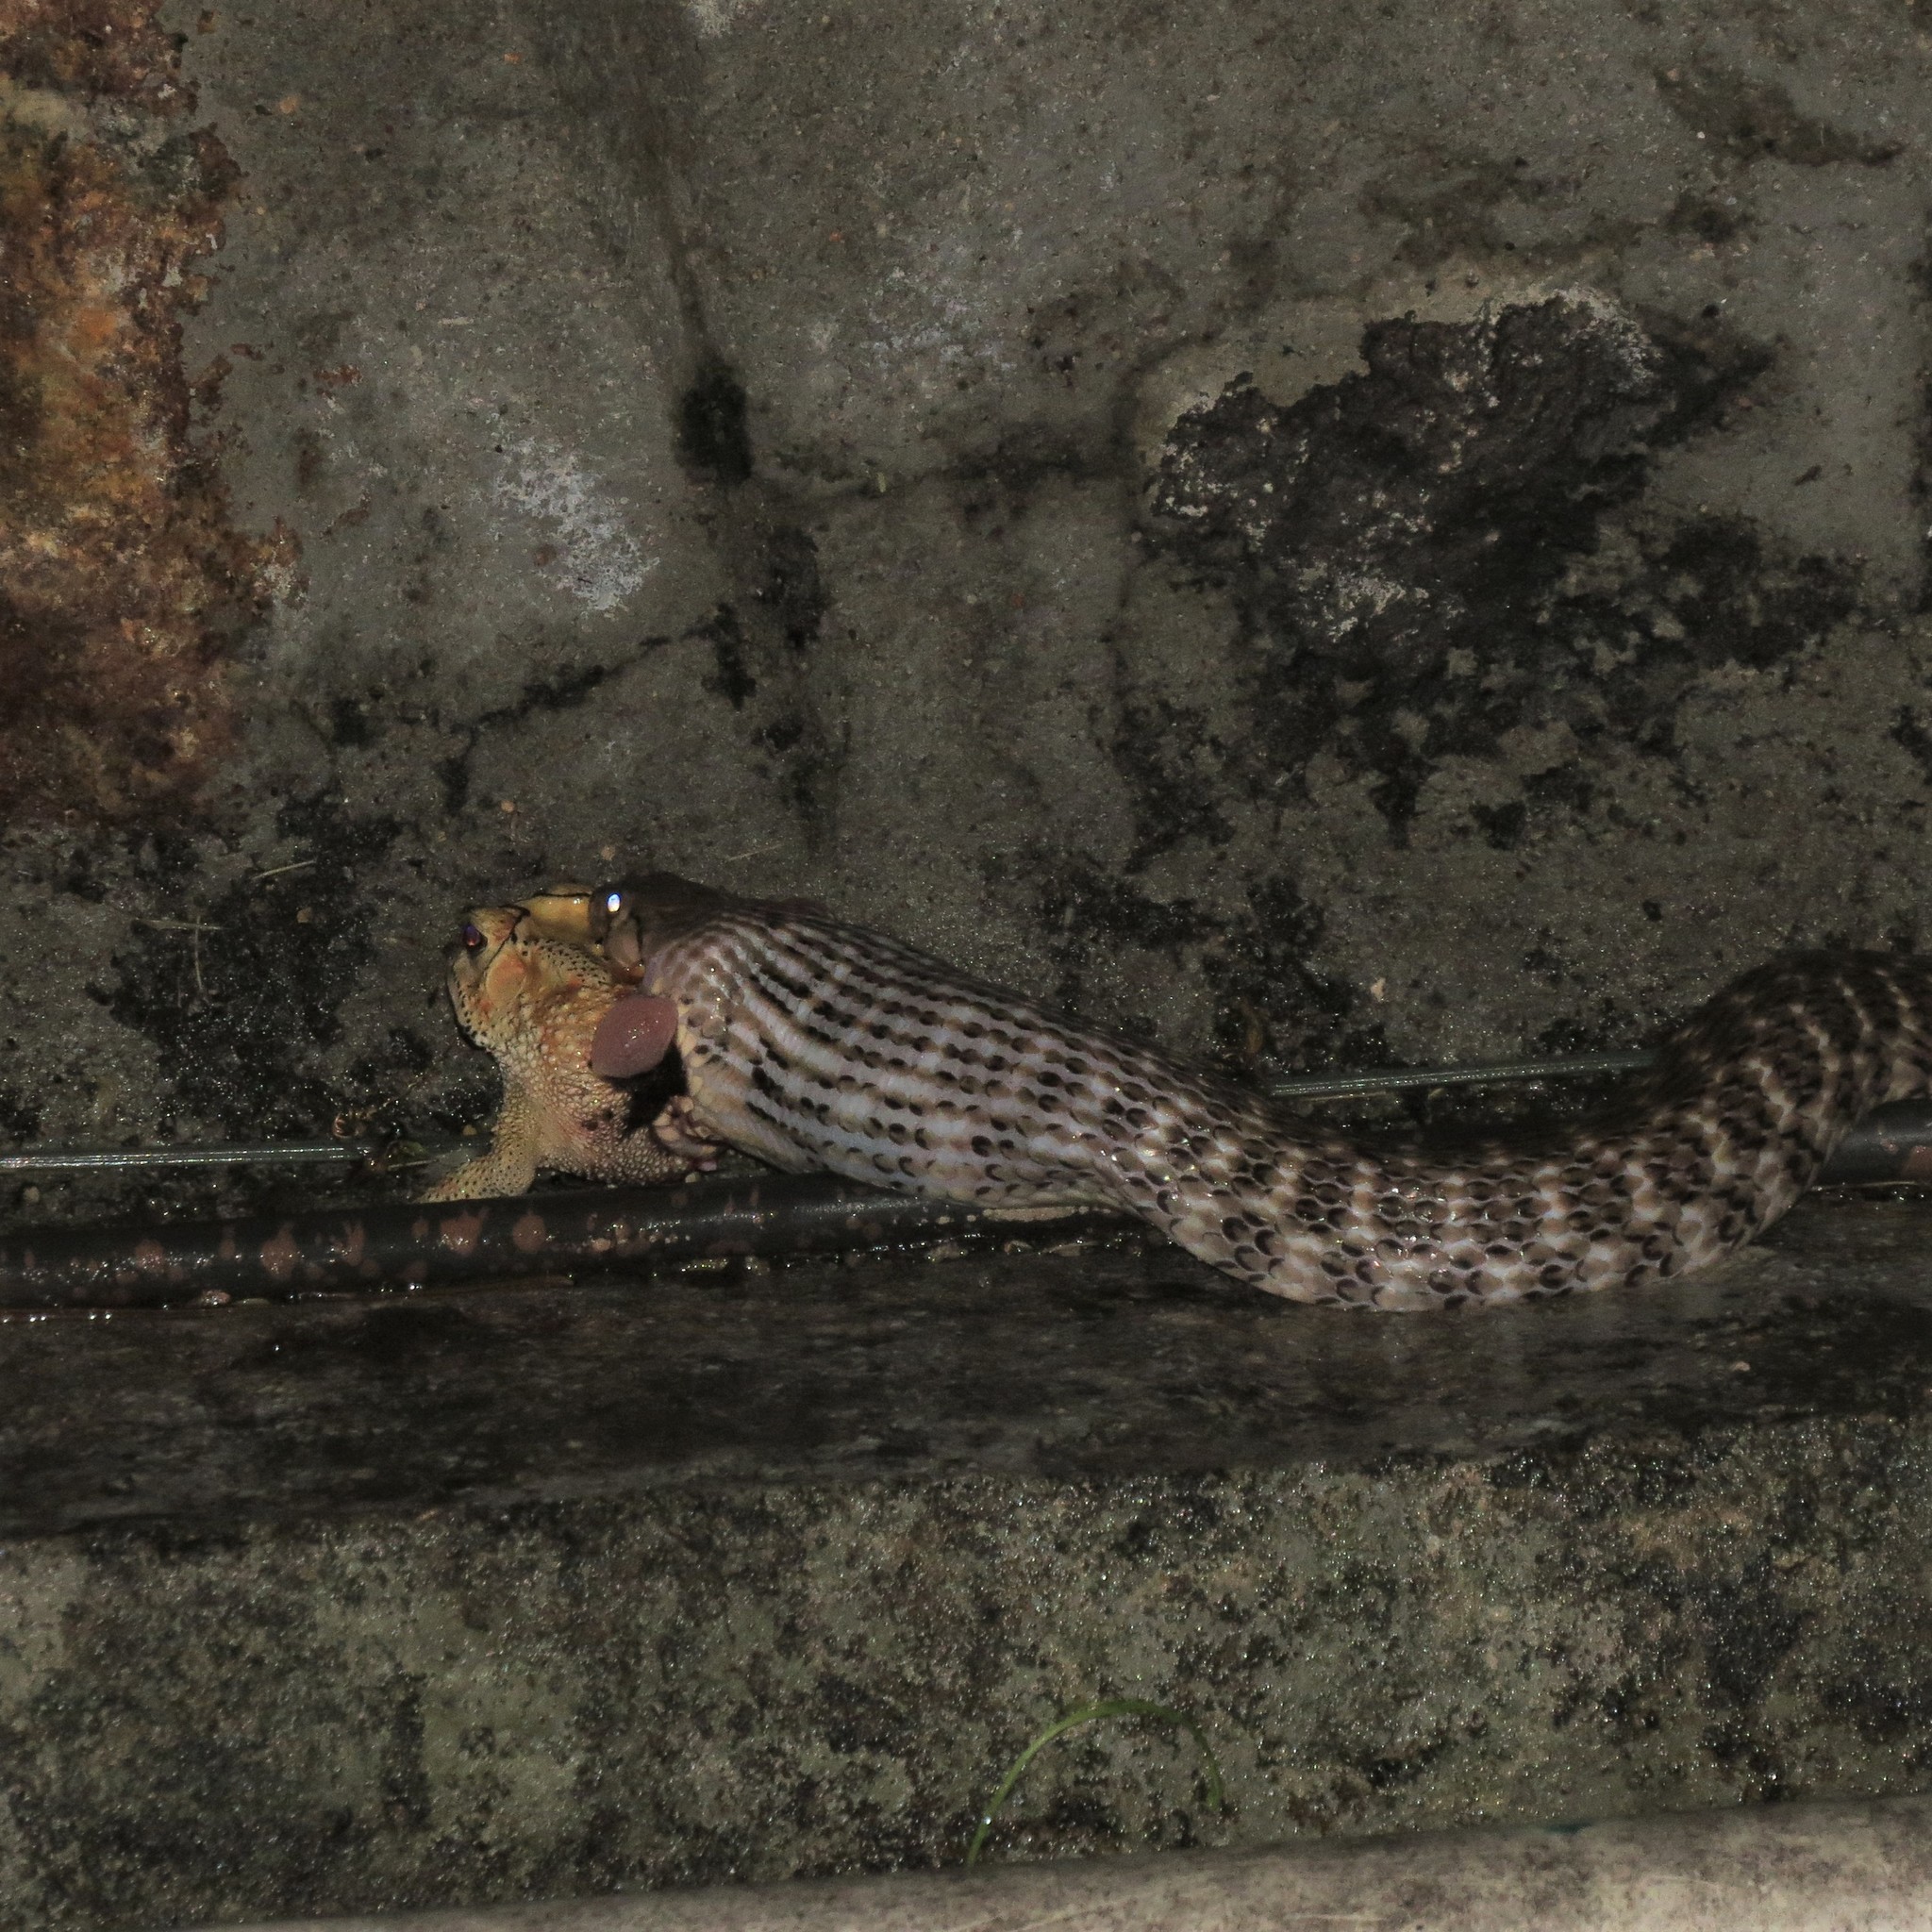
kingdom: Animalia
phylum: Chordata
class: Squamata
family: Colubridae
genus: Fowlea
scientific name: Fowlea piscator
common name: Asiatic water snake
